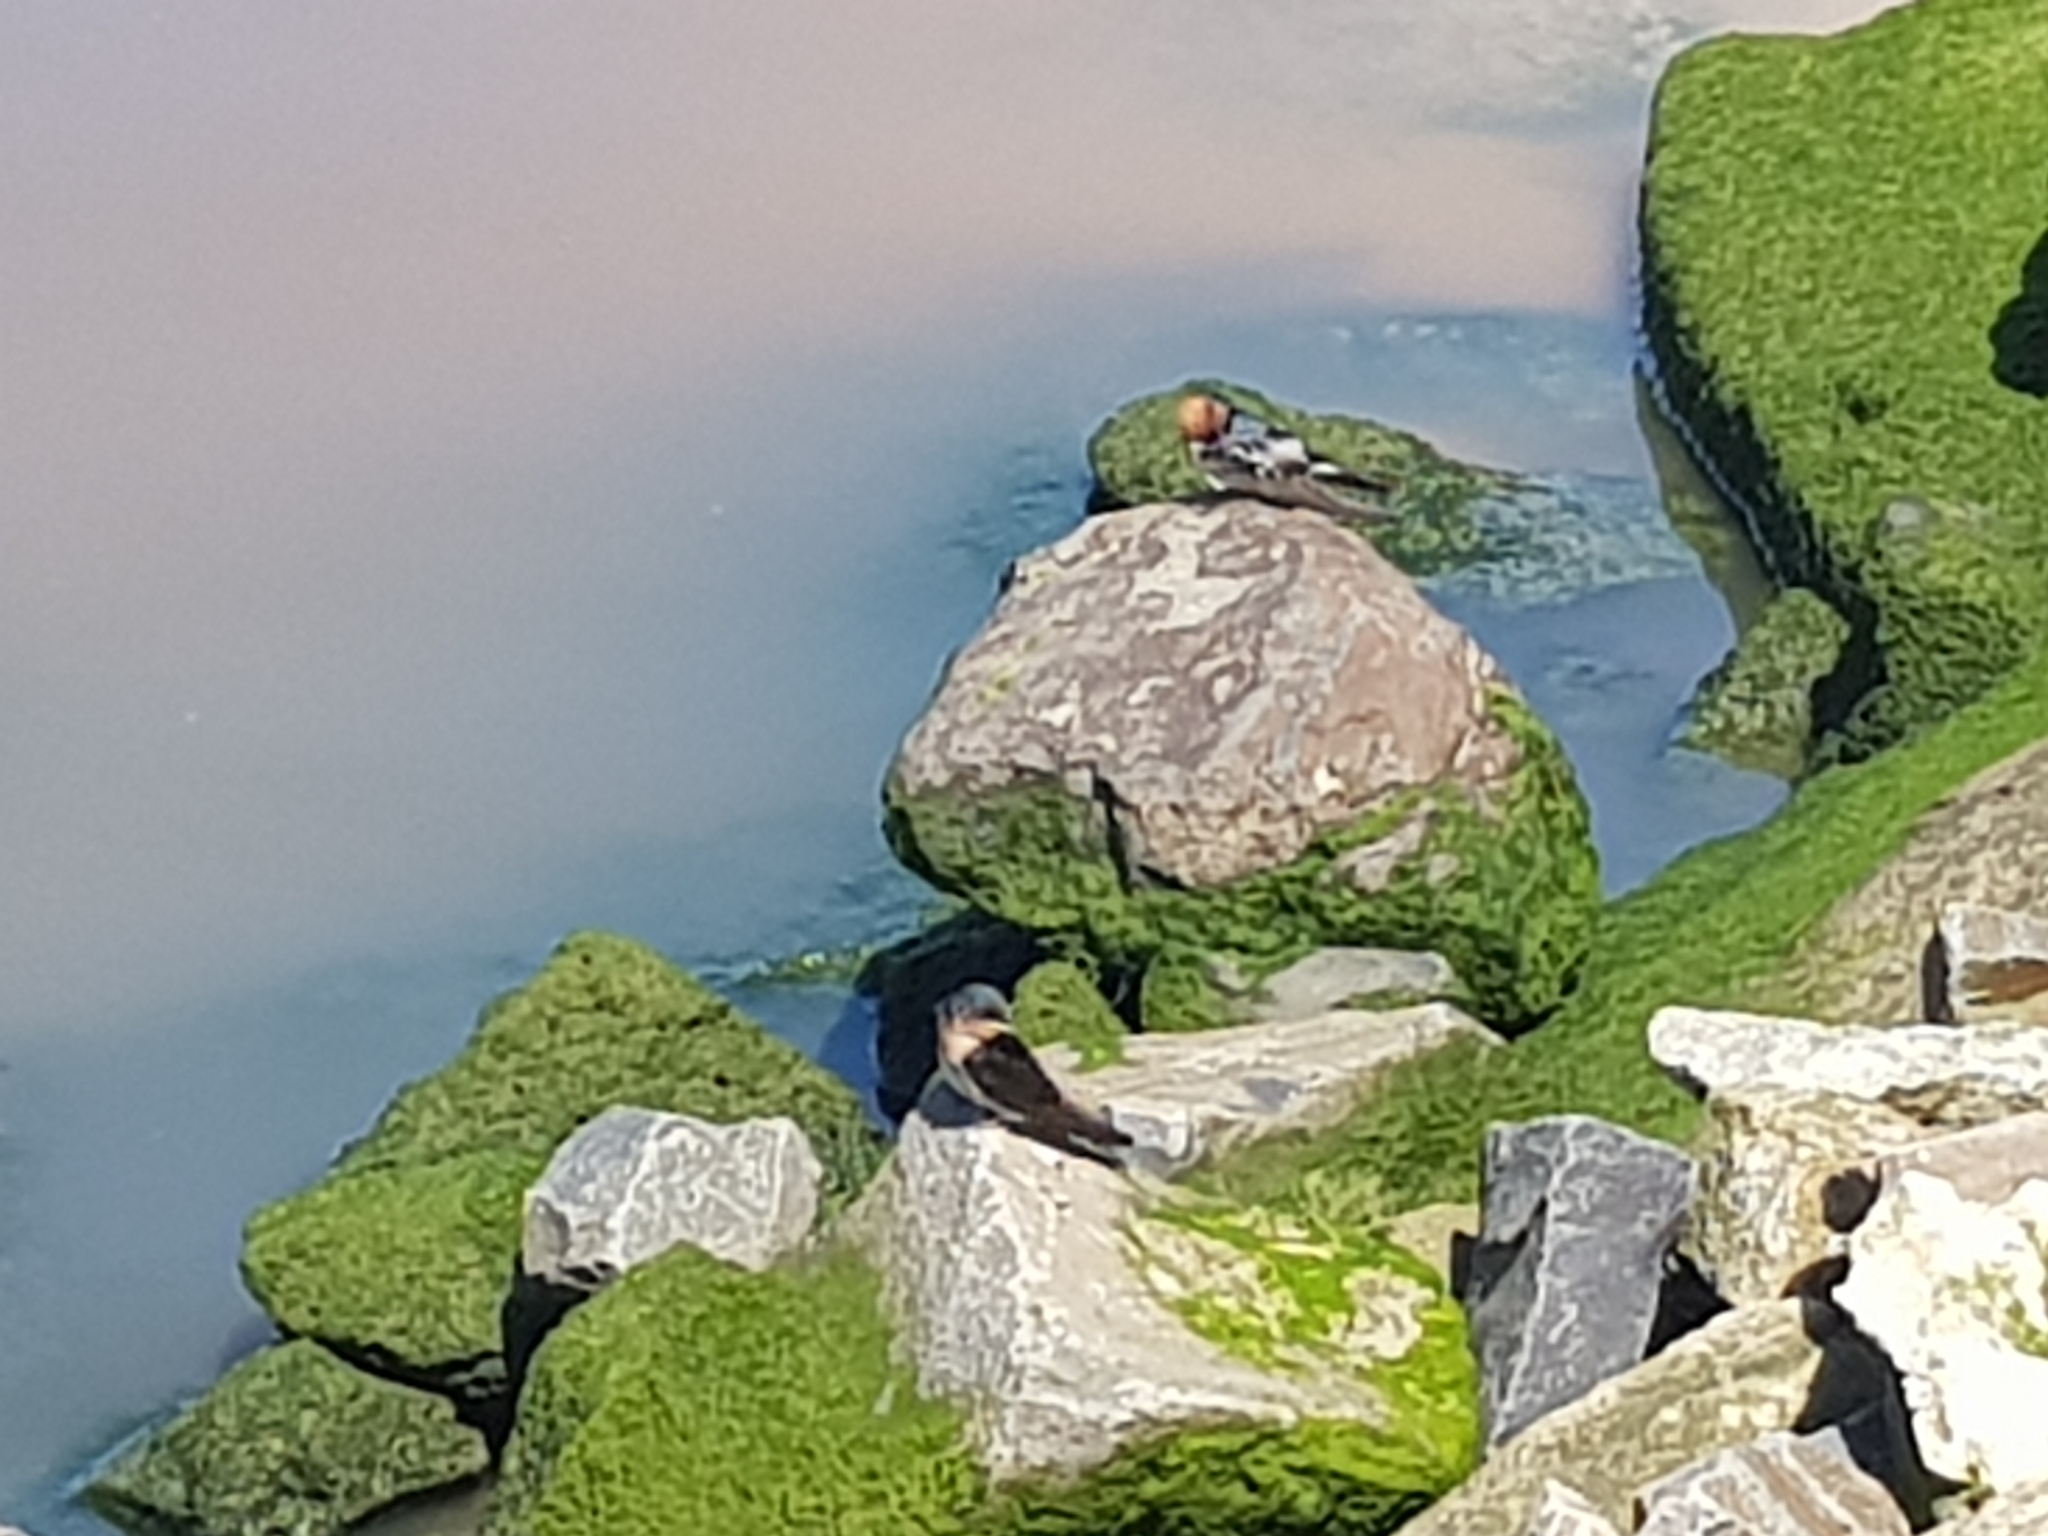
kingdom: Animalia
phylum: Chordata
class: Aves
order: Passeriformes
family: Hirundinidae
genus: Hirundo
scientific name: Hirundo neoxena
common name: Welcome swallow
